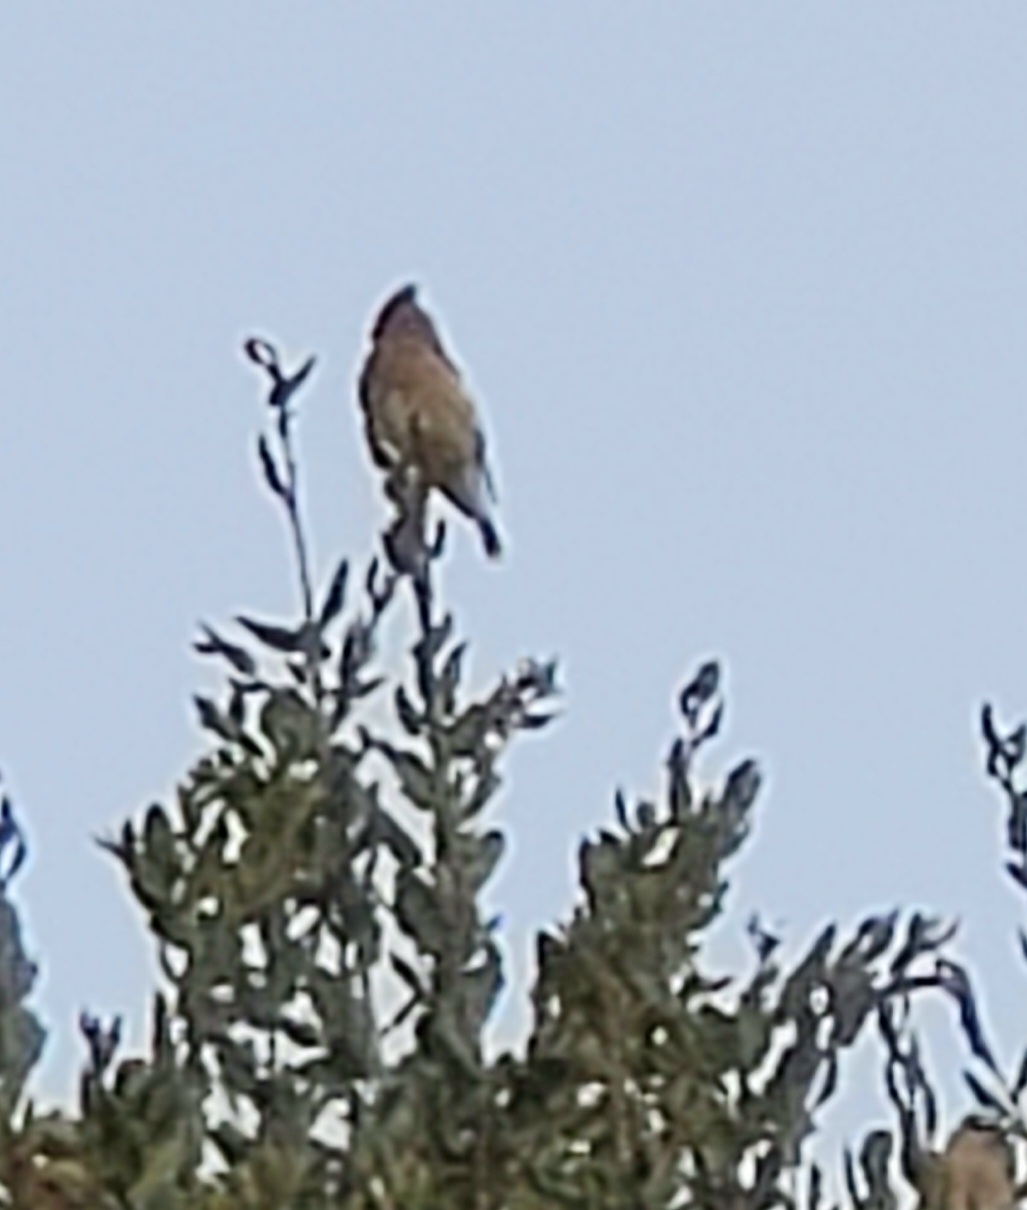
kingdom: Animalia
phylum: Chordata
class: Aves
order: Passeriformes
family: Bombycillidae
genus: Bombycilla
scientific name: Bombycilla cedrorum
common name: Cedar waxwing
